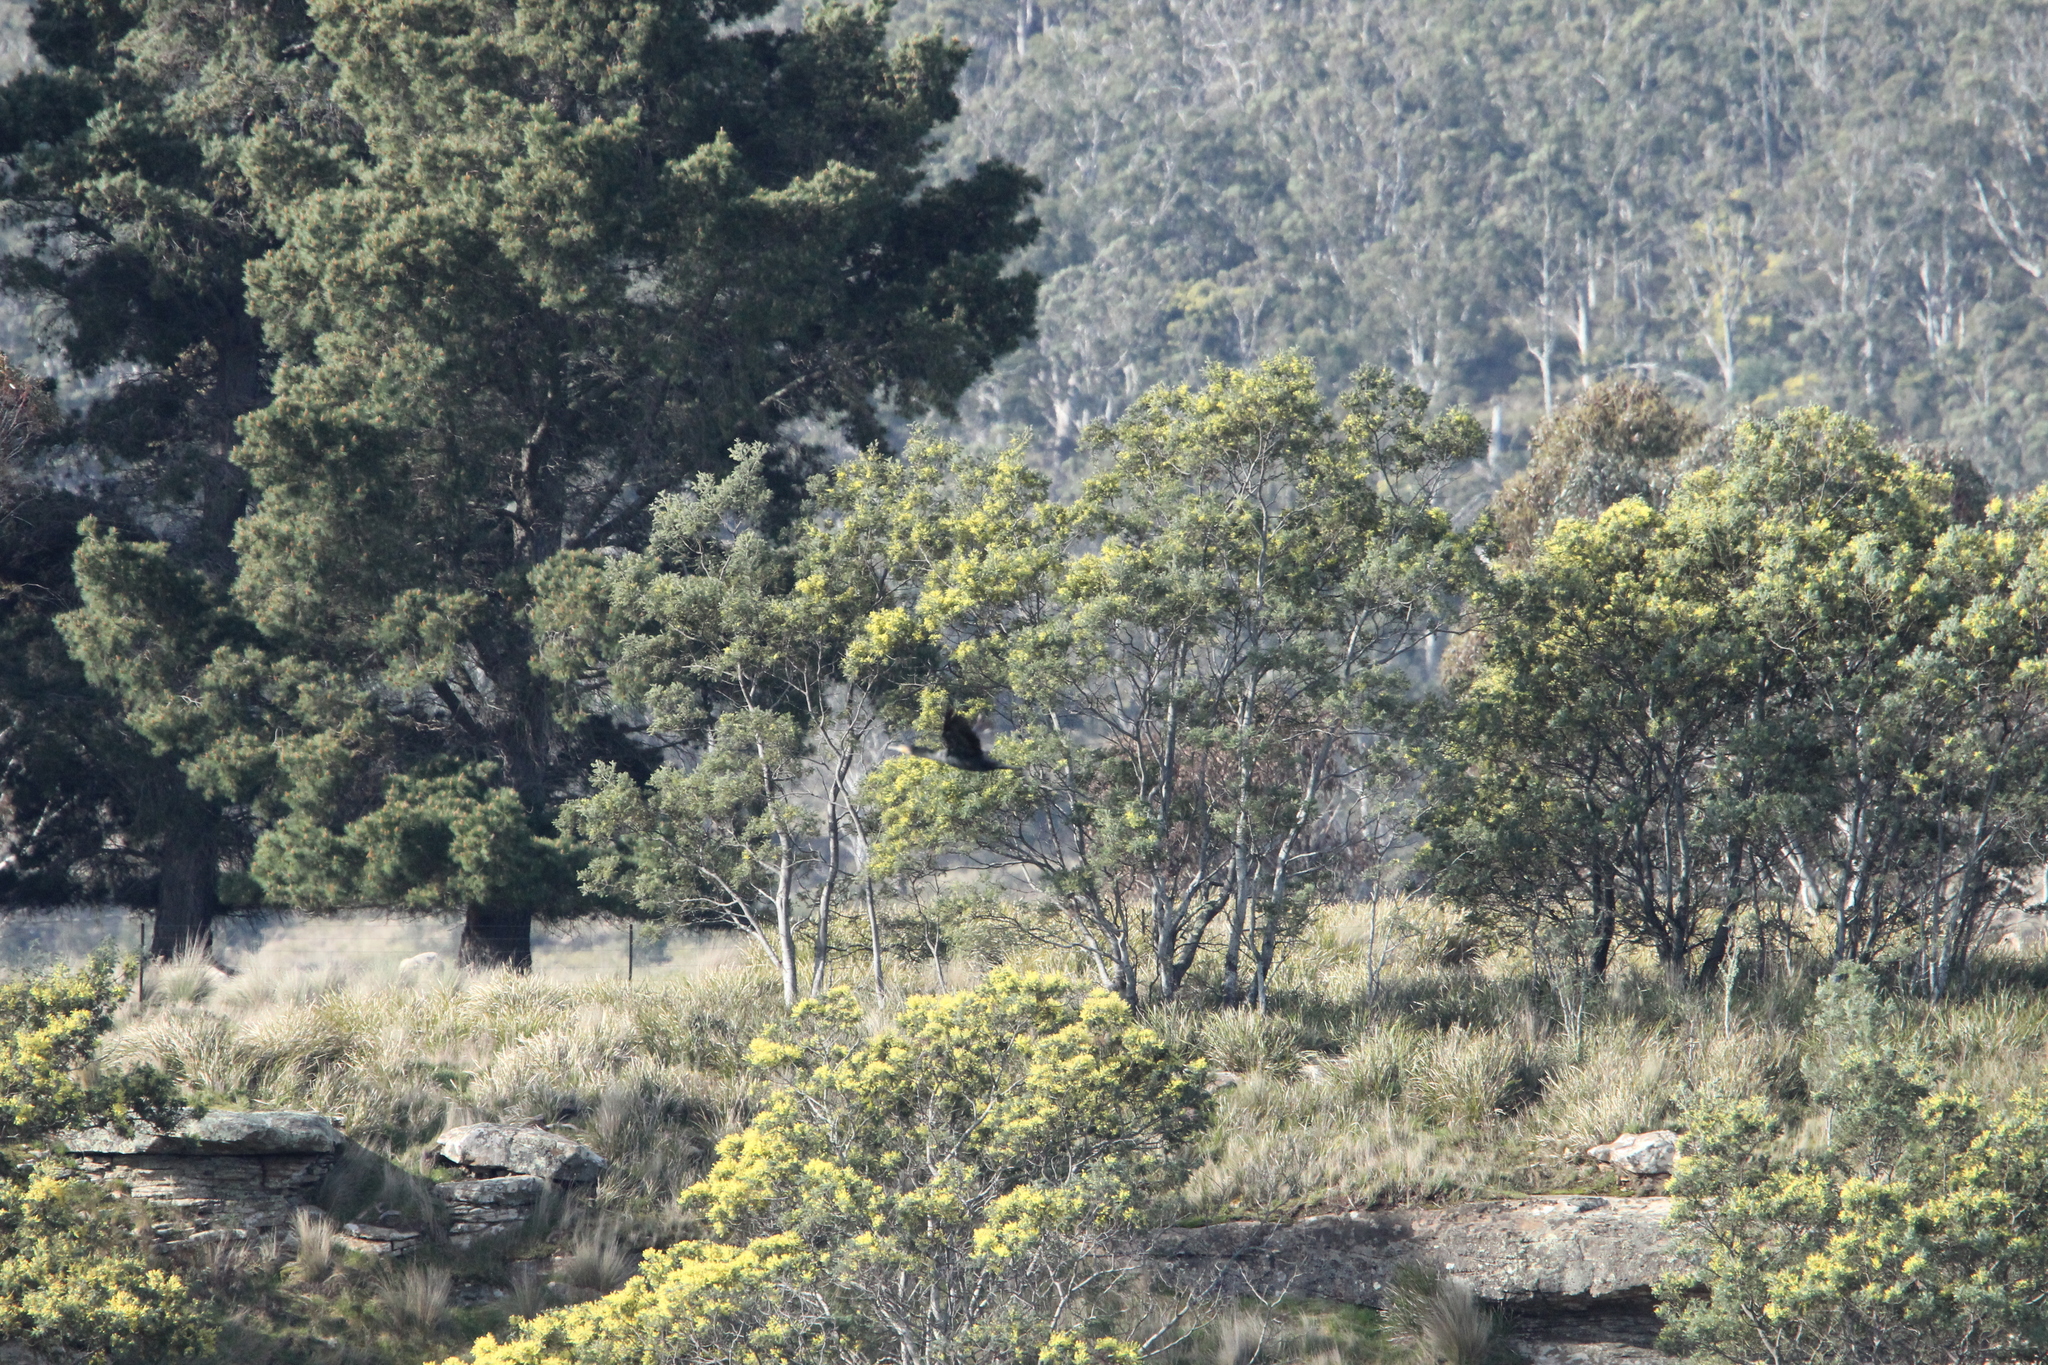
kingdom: Animalia
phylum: Chordata
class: Aves
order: Suliformes
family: Phalacrocoracidae
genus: Phalacrocorax
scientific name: Phalacrocorax carbo
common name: Great cormorant
